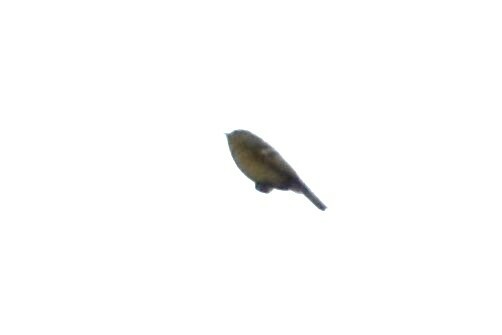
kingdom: Animalia
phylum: Chordata
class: Aves
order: Passeriformes
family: Regulidae
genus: Regulus
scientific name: Regulus calendula
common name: Ruby-crowned kinglet
